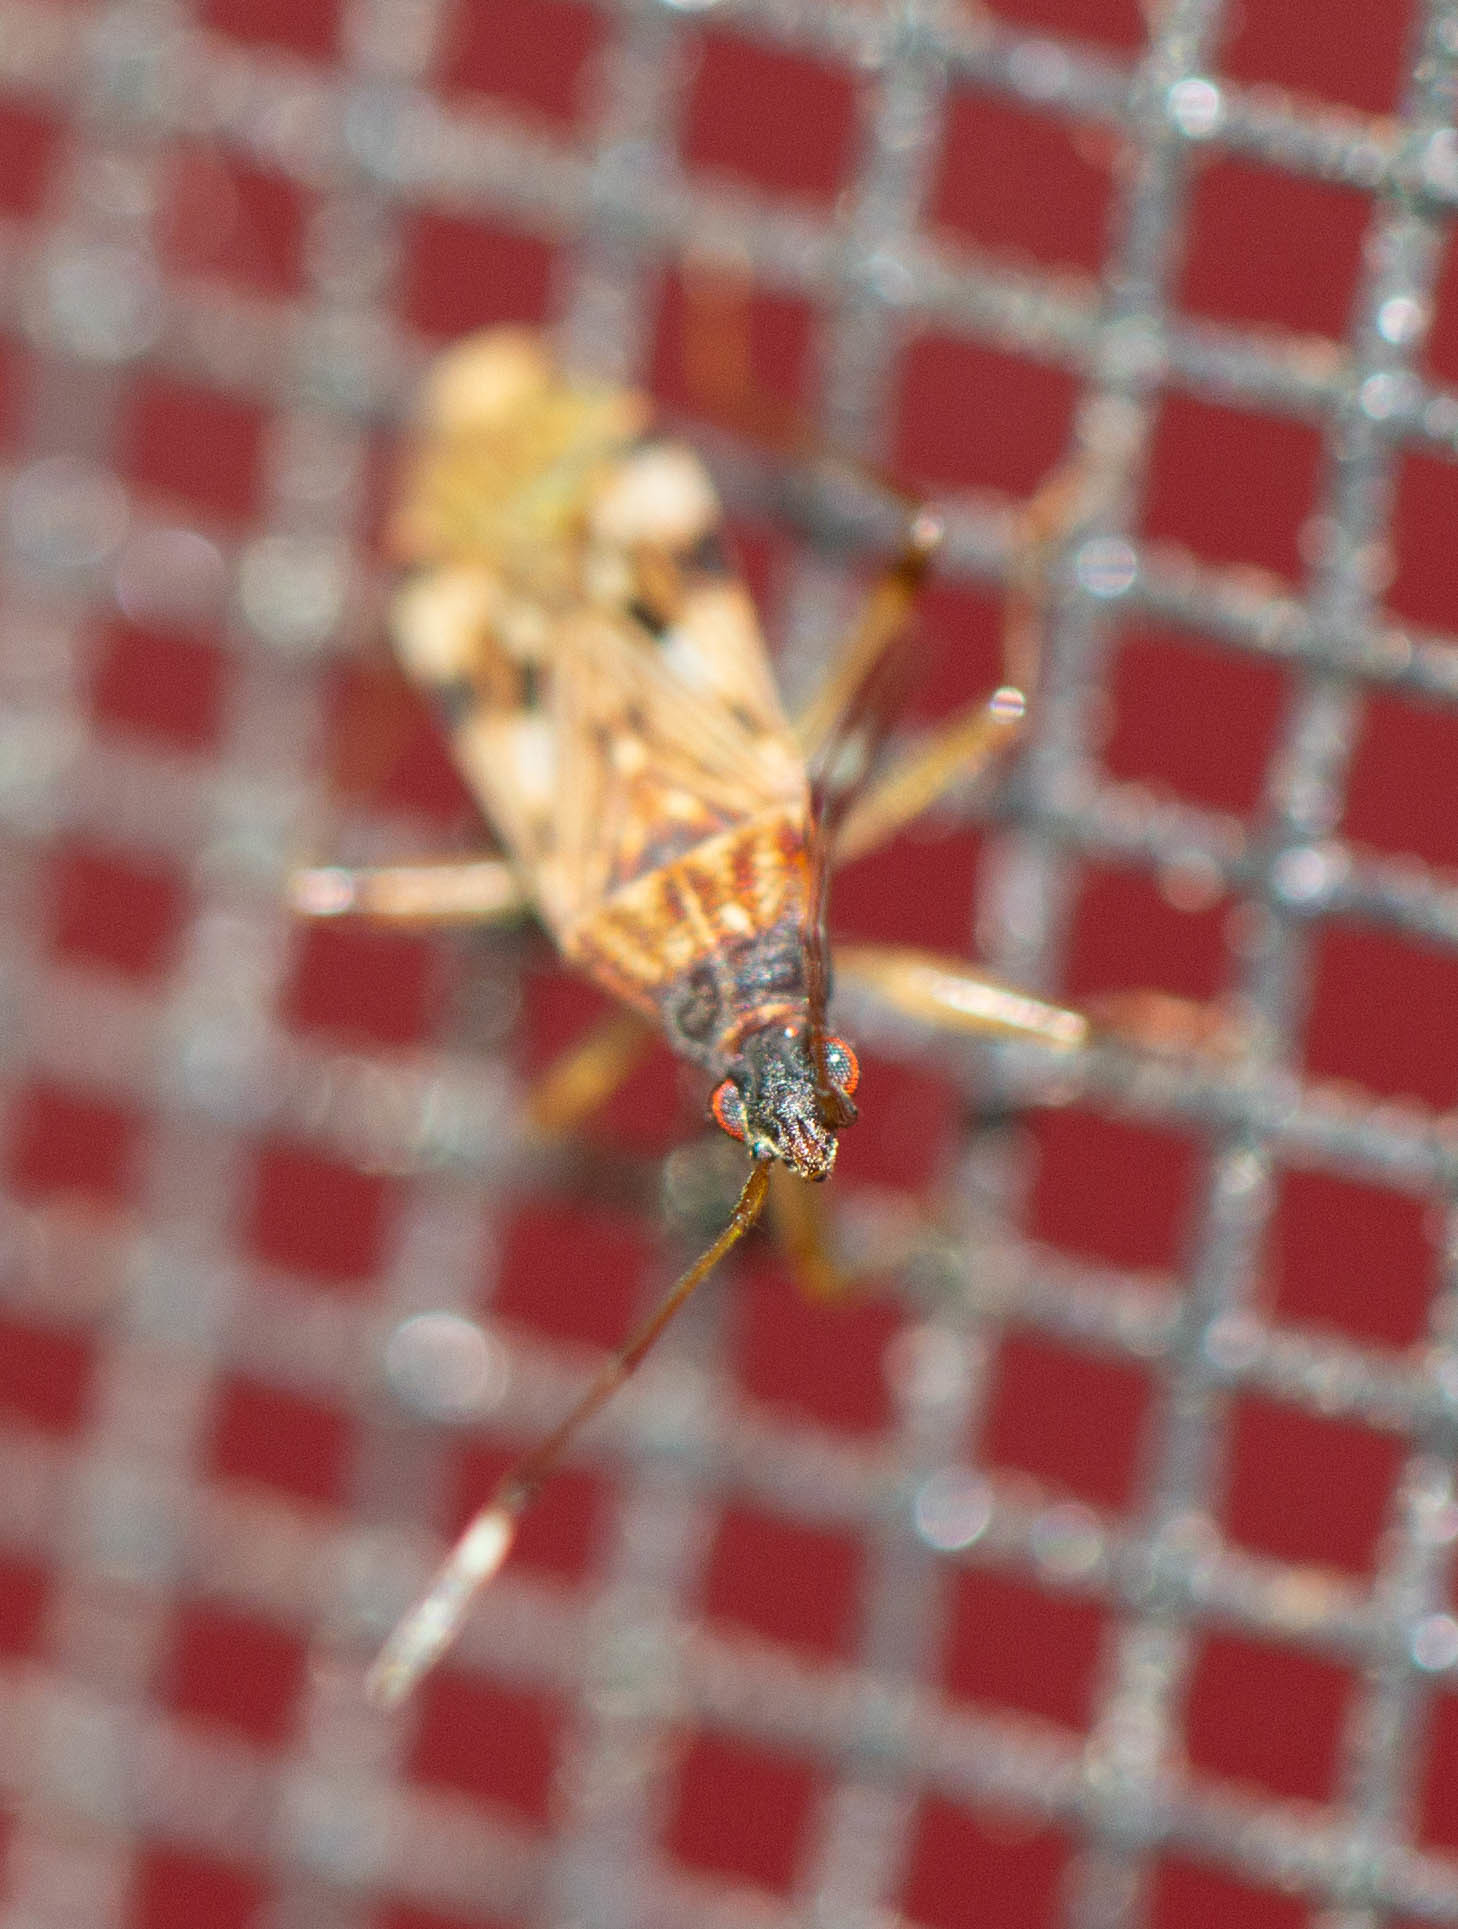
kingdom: Animalia
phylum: Arthropoda
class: Insecta
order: Hemiptera
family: Rhyparochromidae
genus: Ozophora
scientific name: Ozophora picturata
